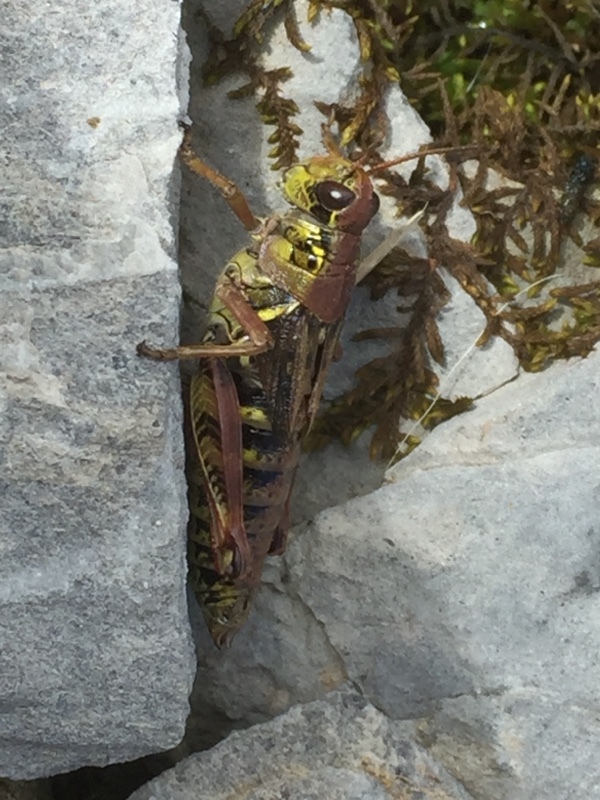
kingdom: Animalia
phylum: Arthropoda
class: Insecta
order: Orthoptera
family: Acrididae
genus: Bohemanella
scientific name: Bohemanella frigida
